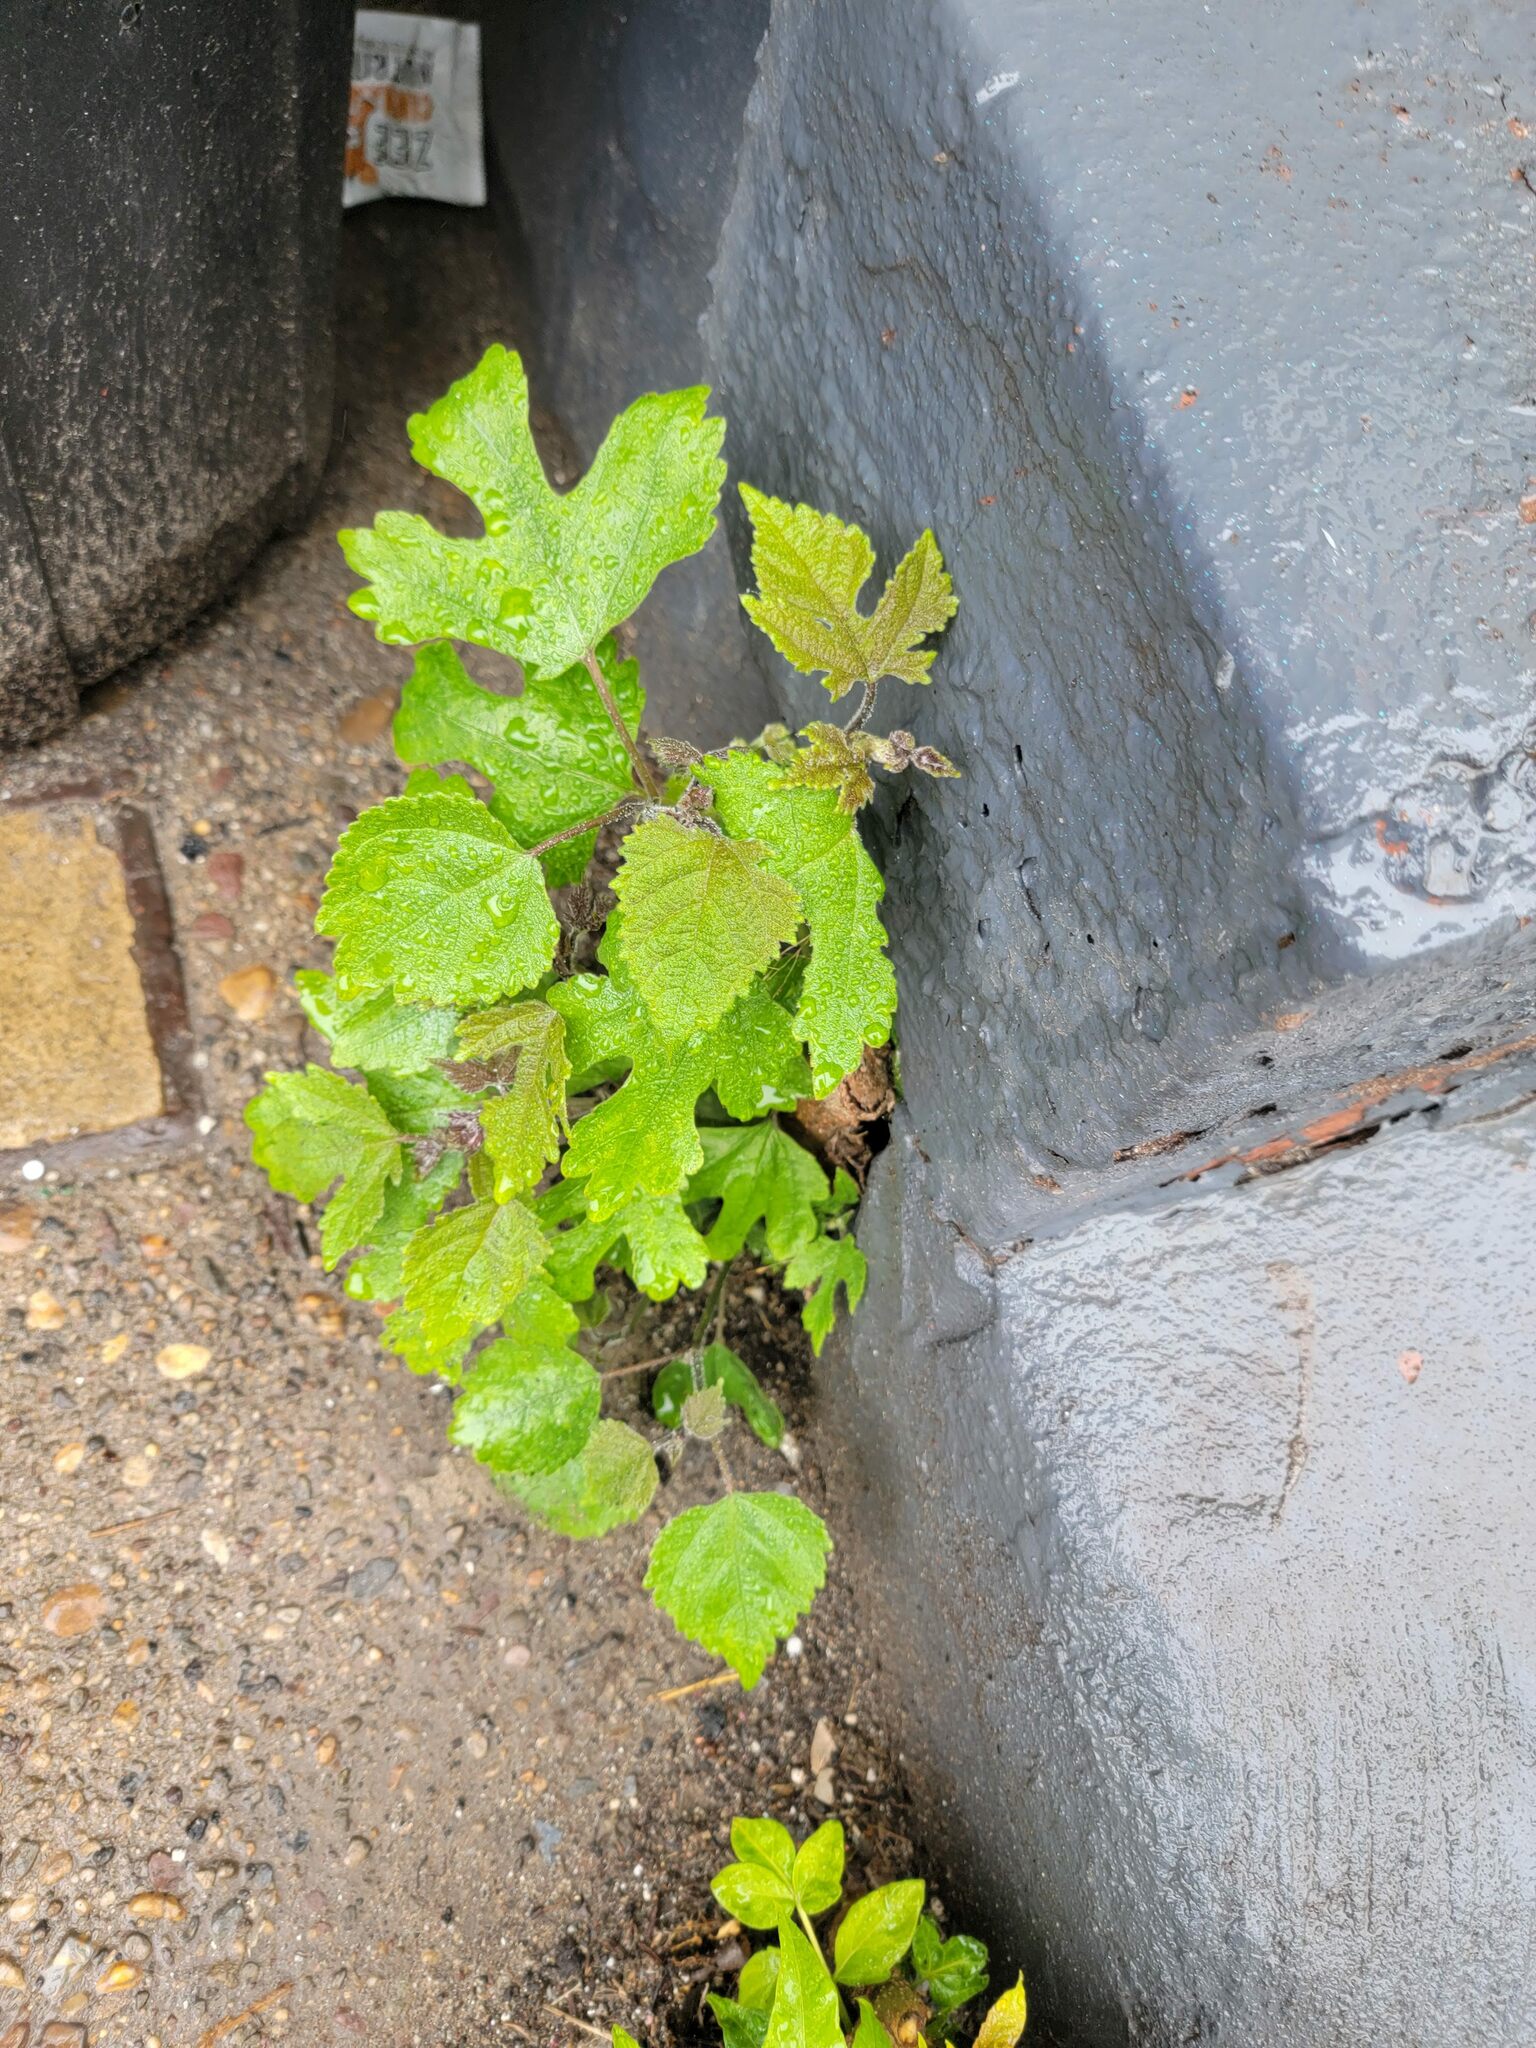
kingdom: Plantae
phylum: Tracheophyta
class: Magnoliopsida
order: Rosales
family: Moraceae
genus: Broussonetia
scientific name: Broussonetia papyrifera
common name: Paper mulberry
